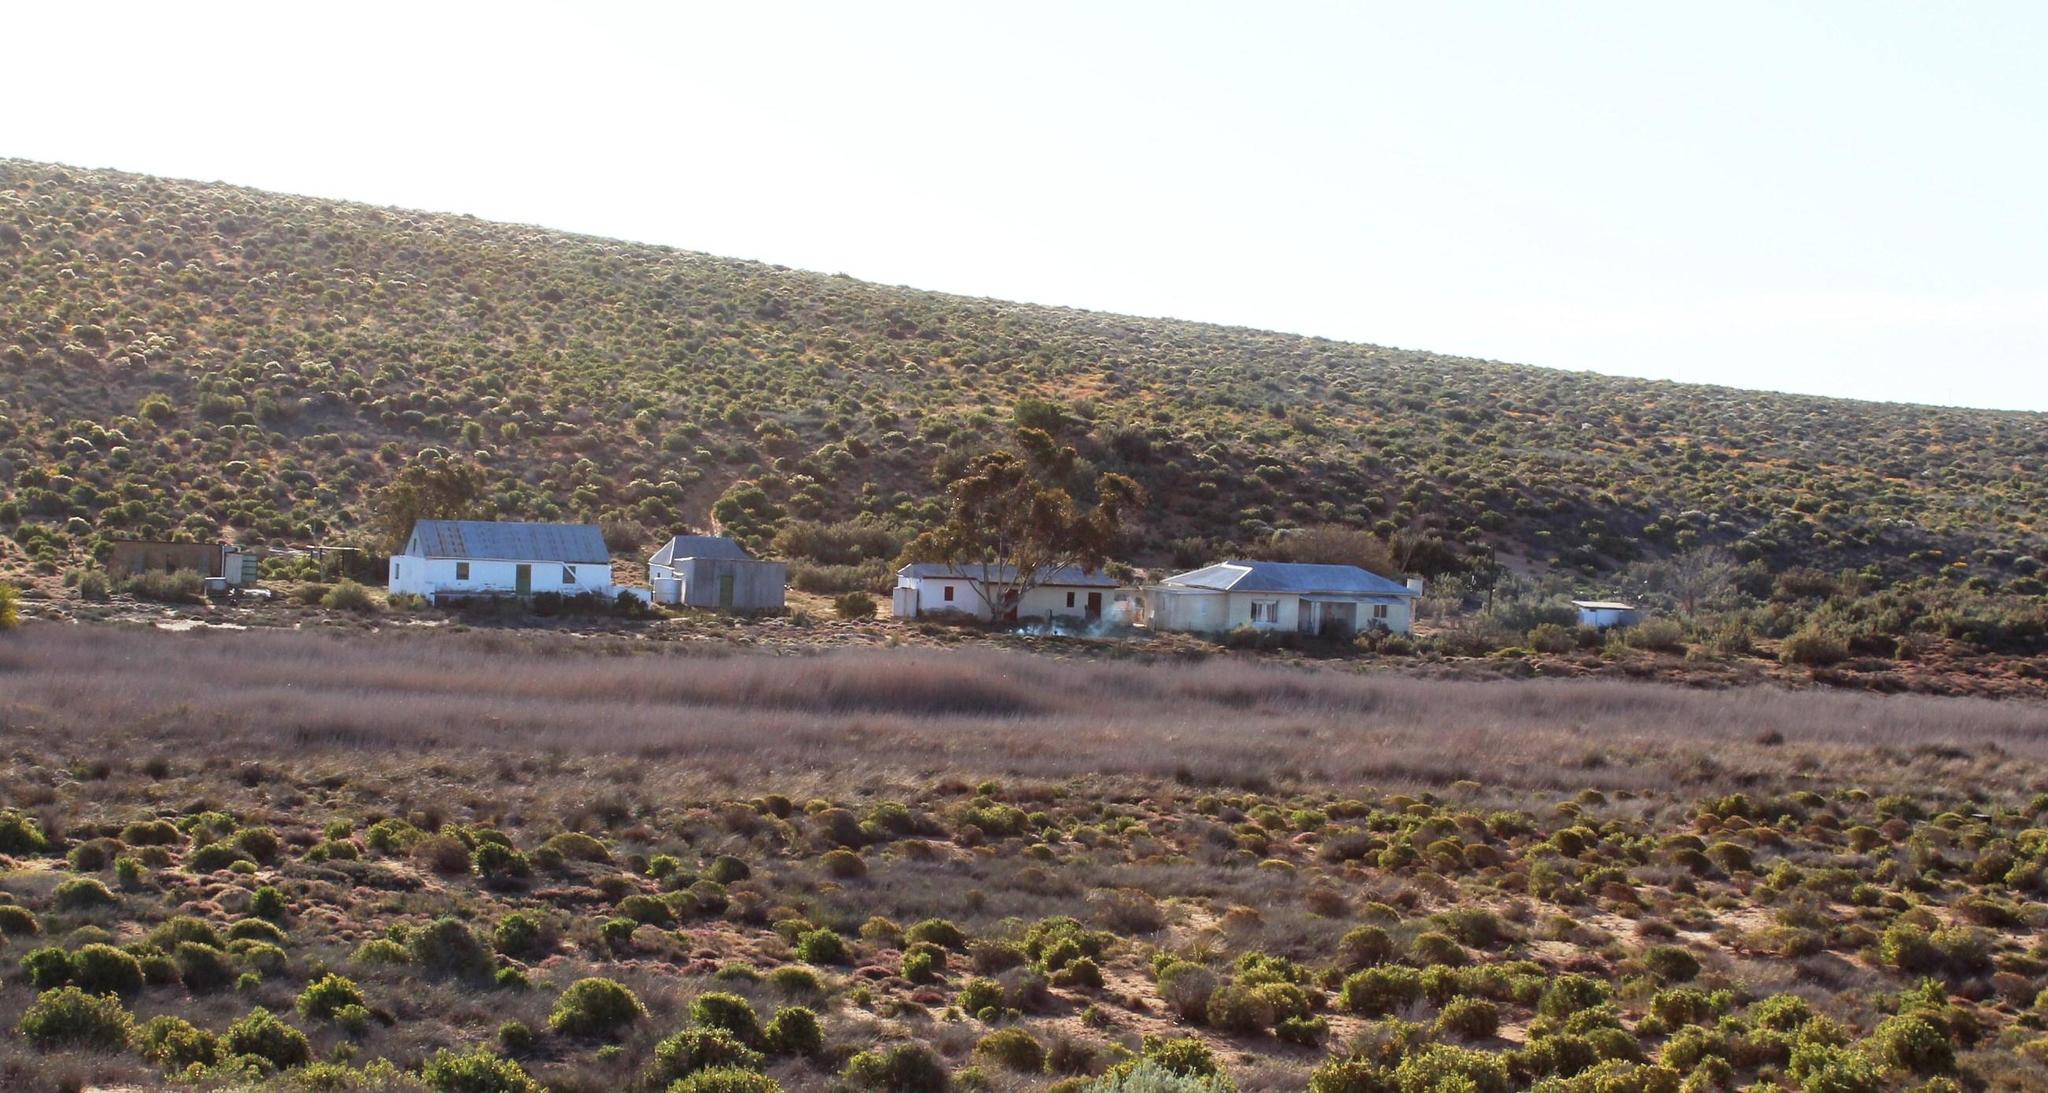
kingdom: Plantae
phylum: Tracheophyta
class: Magnoliopsida
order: Myrtales
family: Myrtaceae
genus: Eucalyptus
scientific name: Eucalyptus cladocalyx
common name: Sugargum
